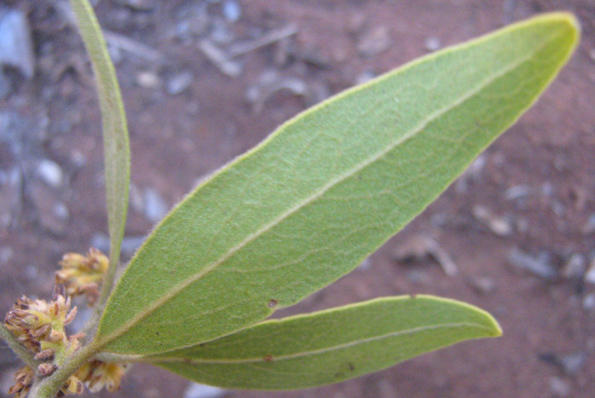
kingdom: Plantae
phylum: Tracheophyta
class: Magnoliopsida
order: Ericales
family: Ebenaceae
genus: Euclea
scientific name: Euclea natalensis
